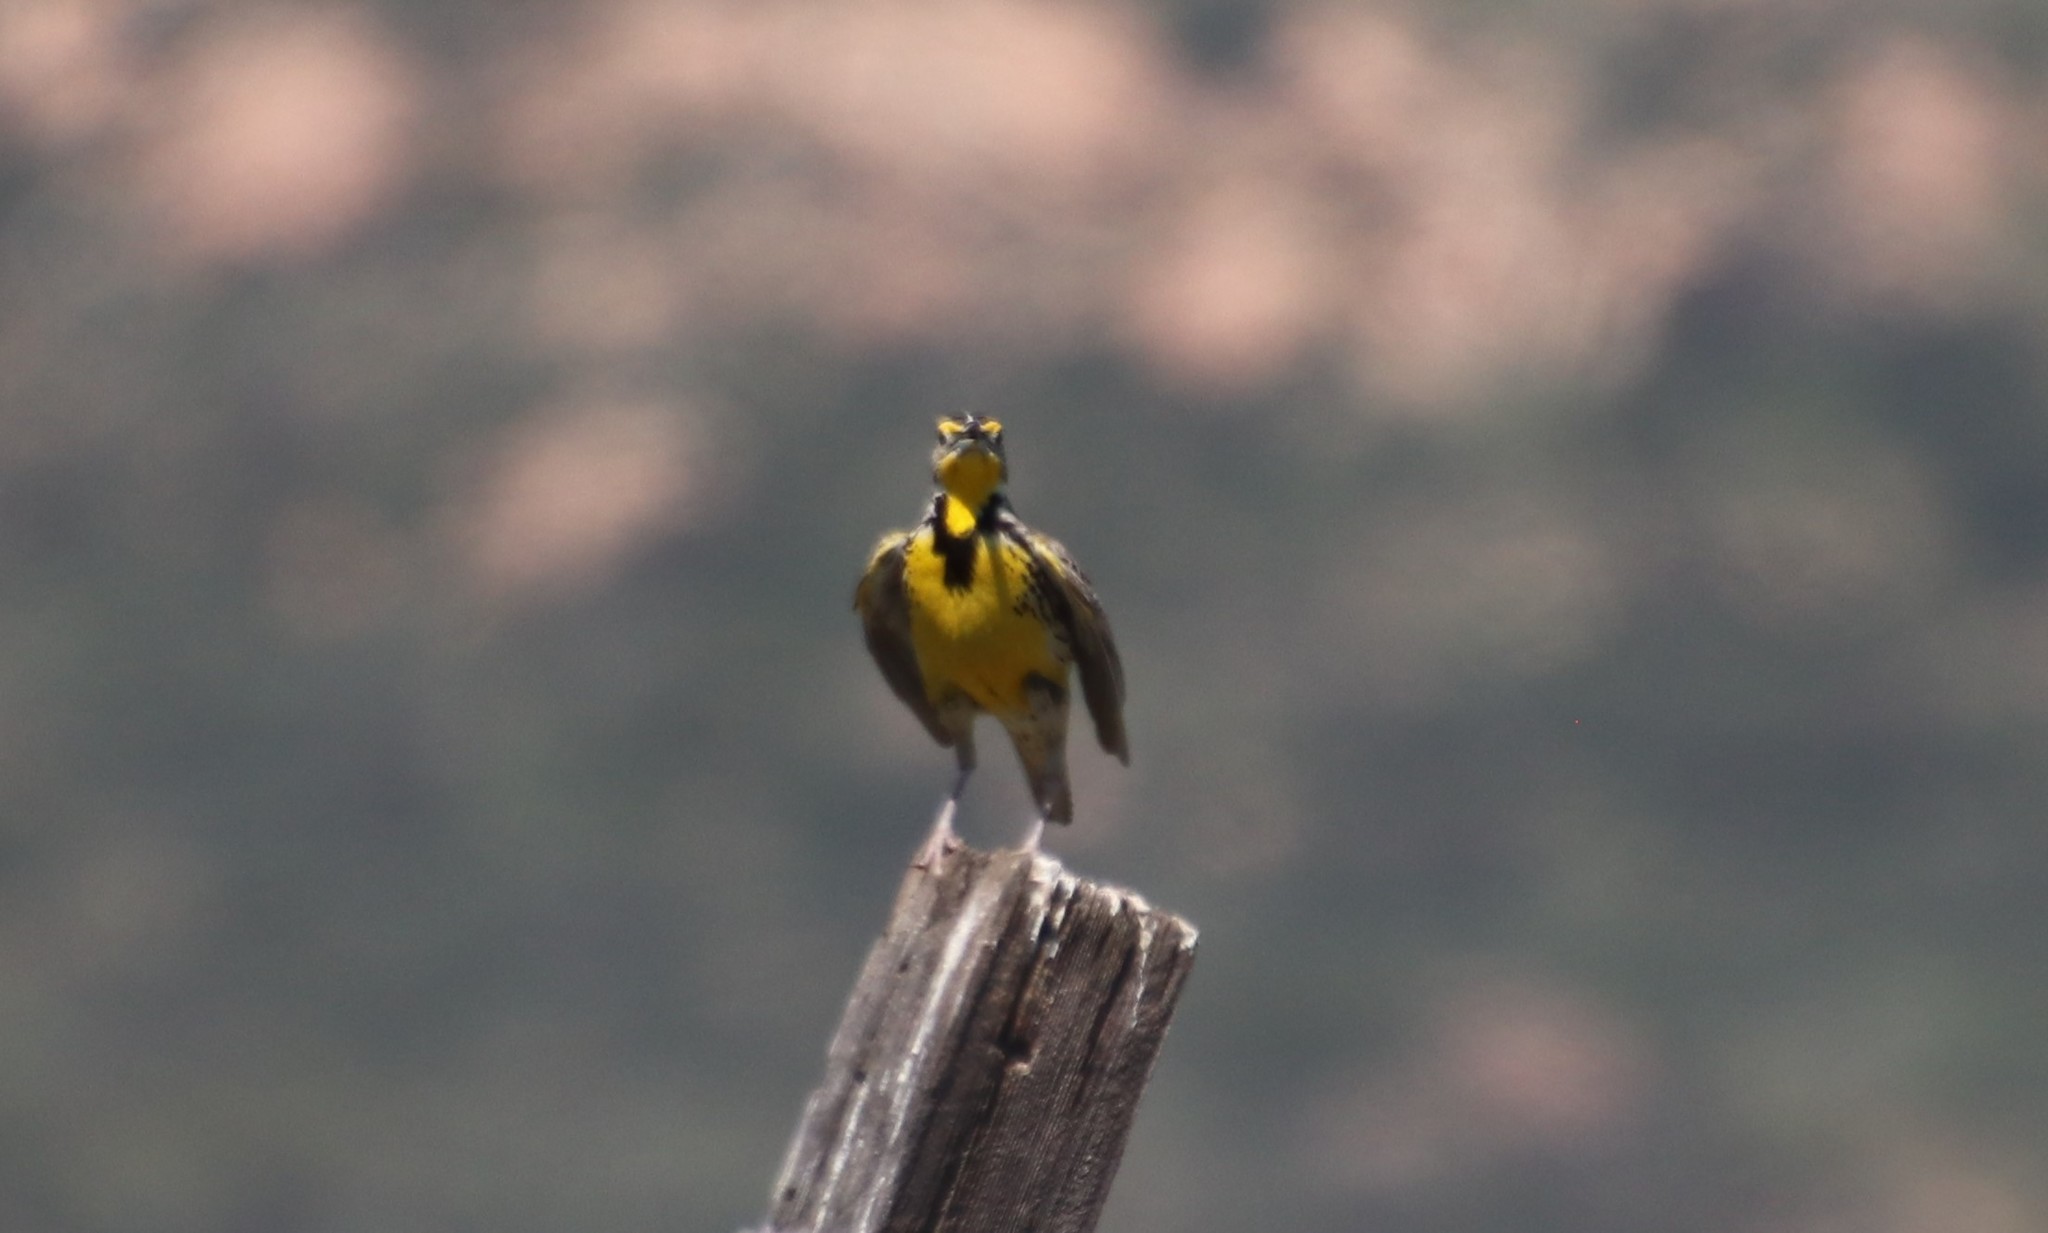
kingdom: Animalia
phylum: Chordata
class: Aves
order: Passeriformes
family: Icteridae
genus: Sturnella
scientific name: Sturnella neglecta
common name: Western meadowlark
